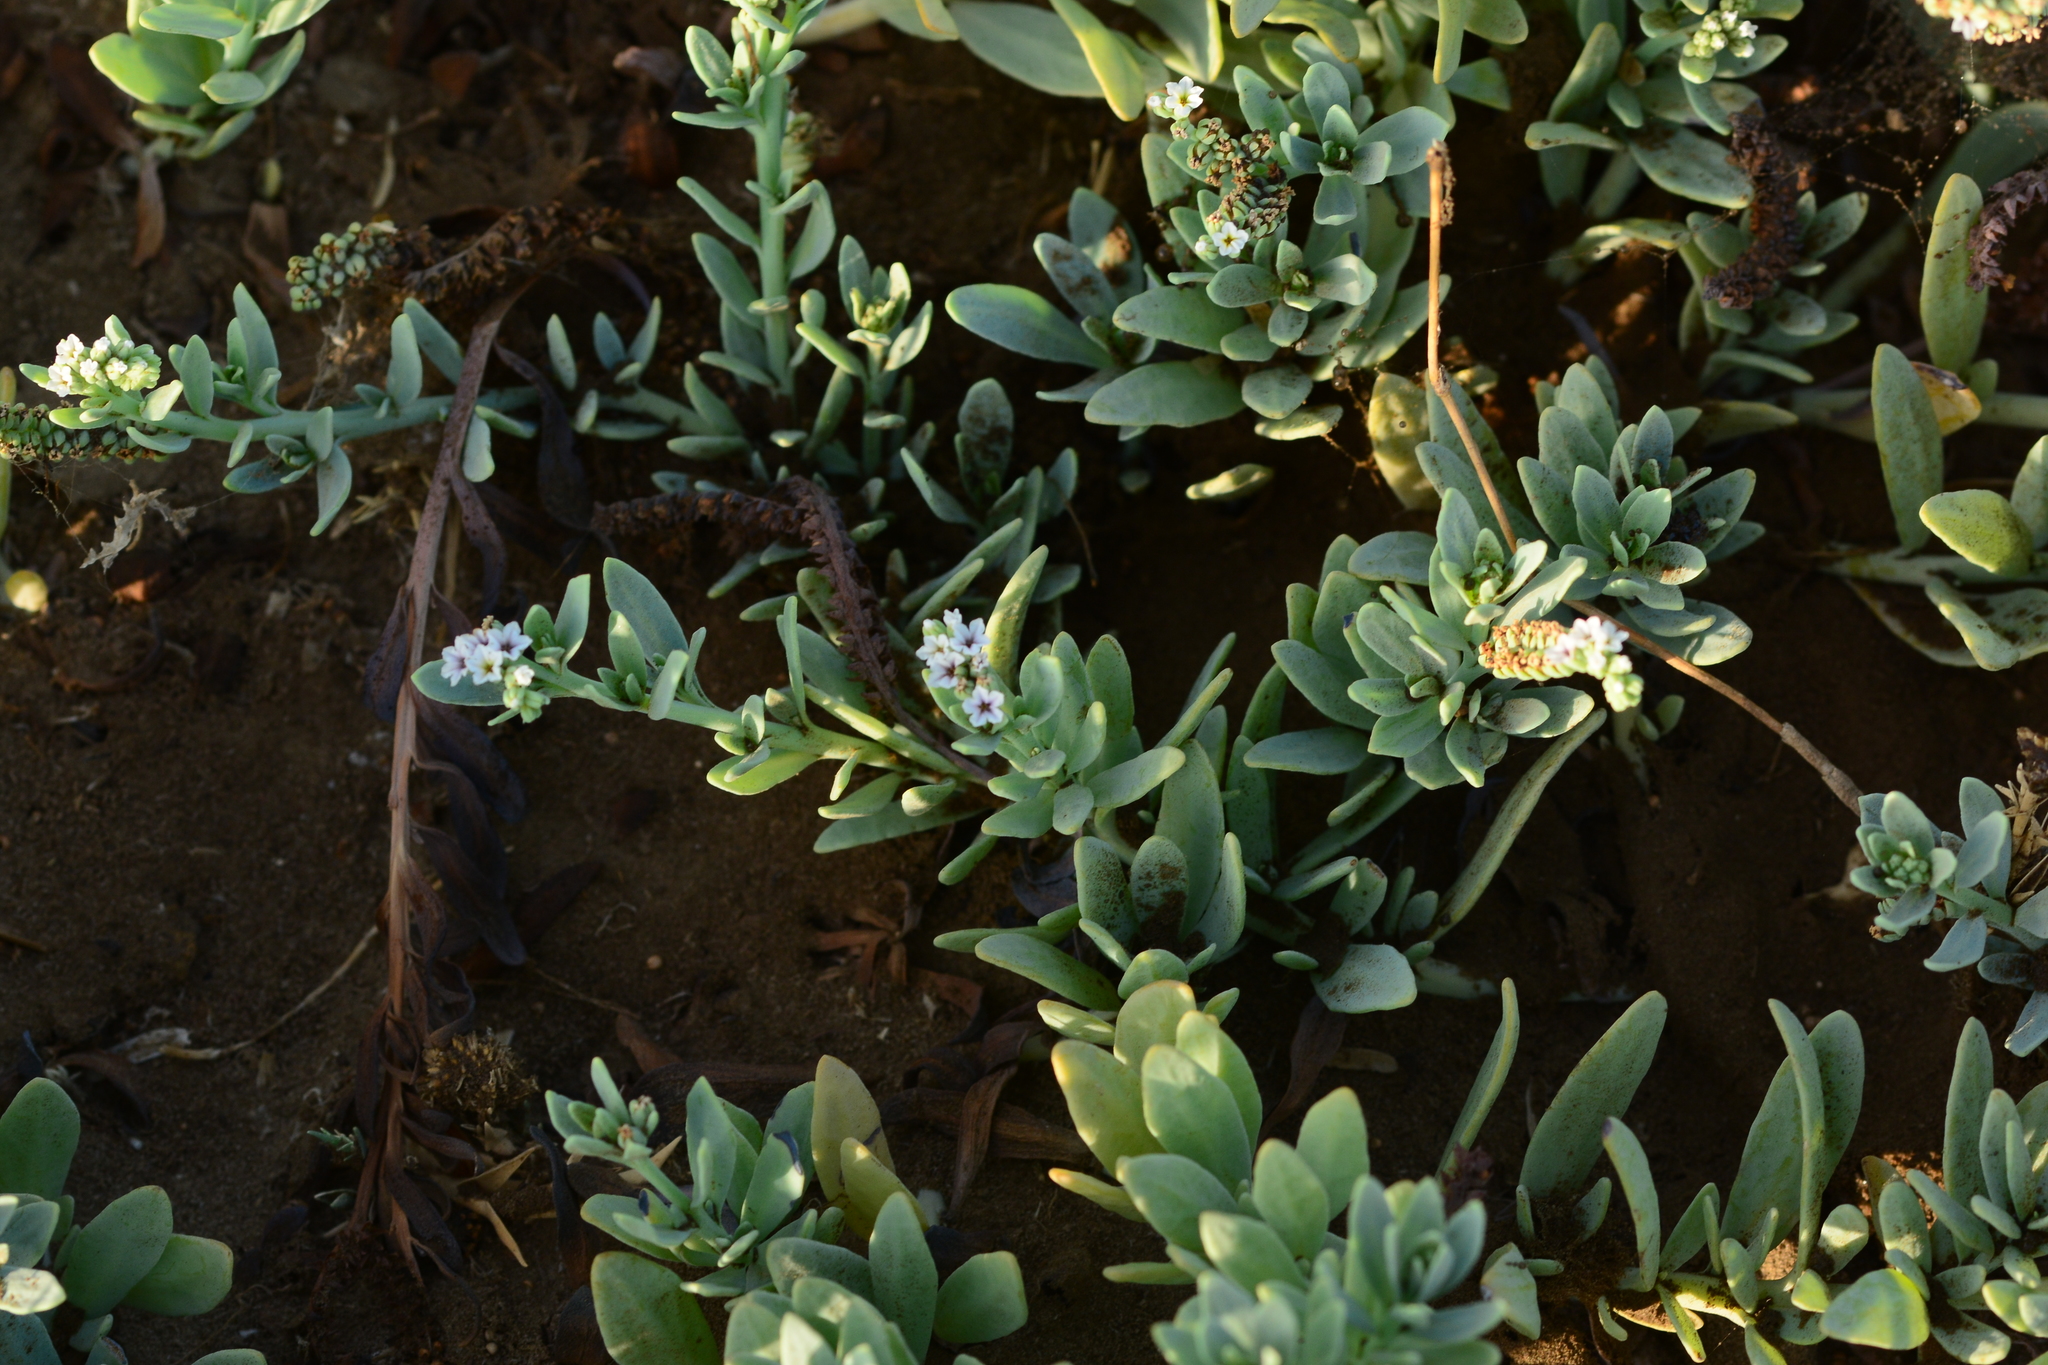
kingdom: Plantae
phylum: Tracheophyta
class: Magnoliopsida
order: Boraginales
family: Heliotropiaceae
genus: Heliotropium
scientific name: Heliotropium curassavicum
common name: Seaside heliotrope
